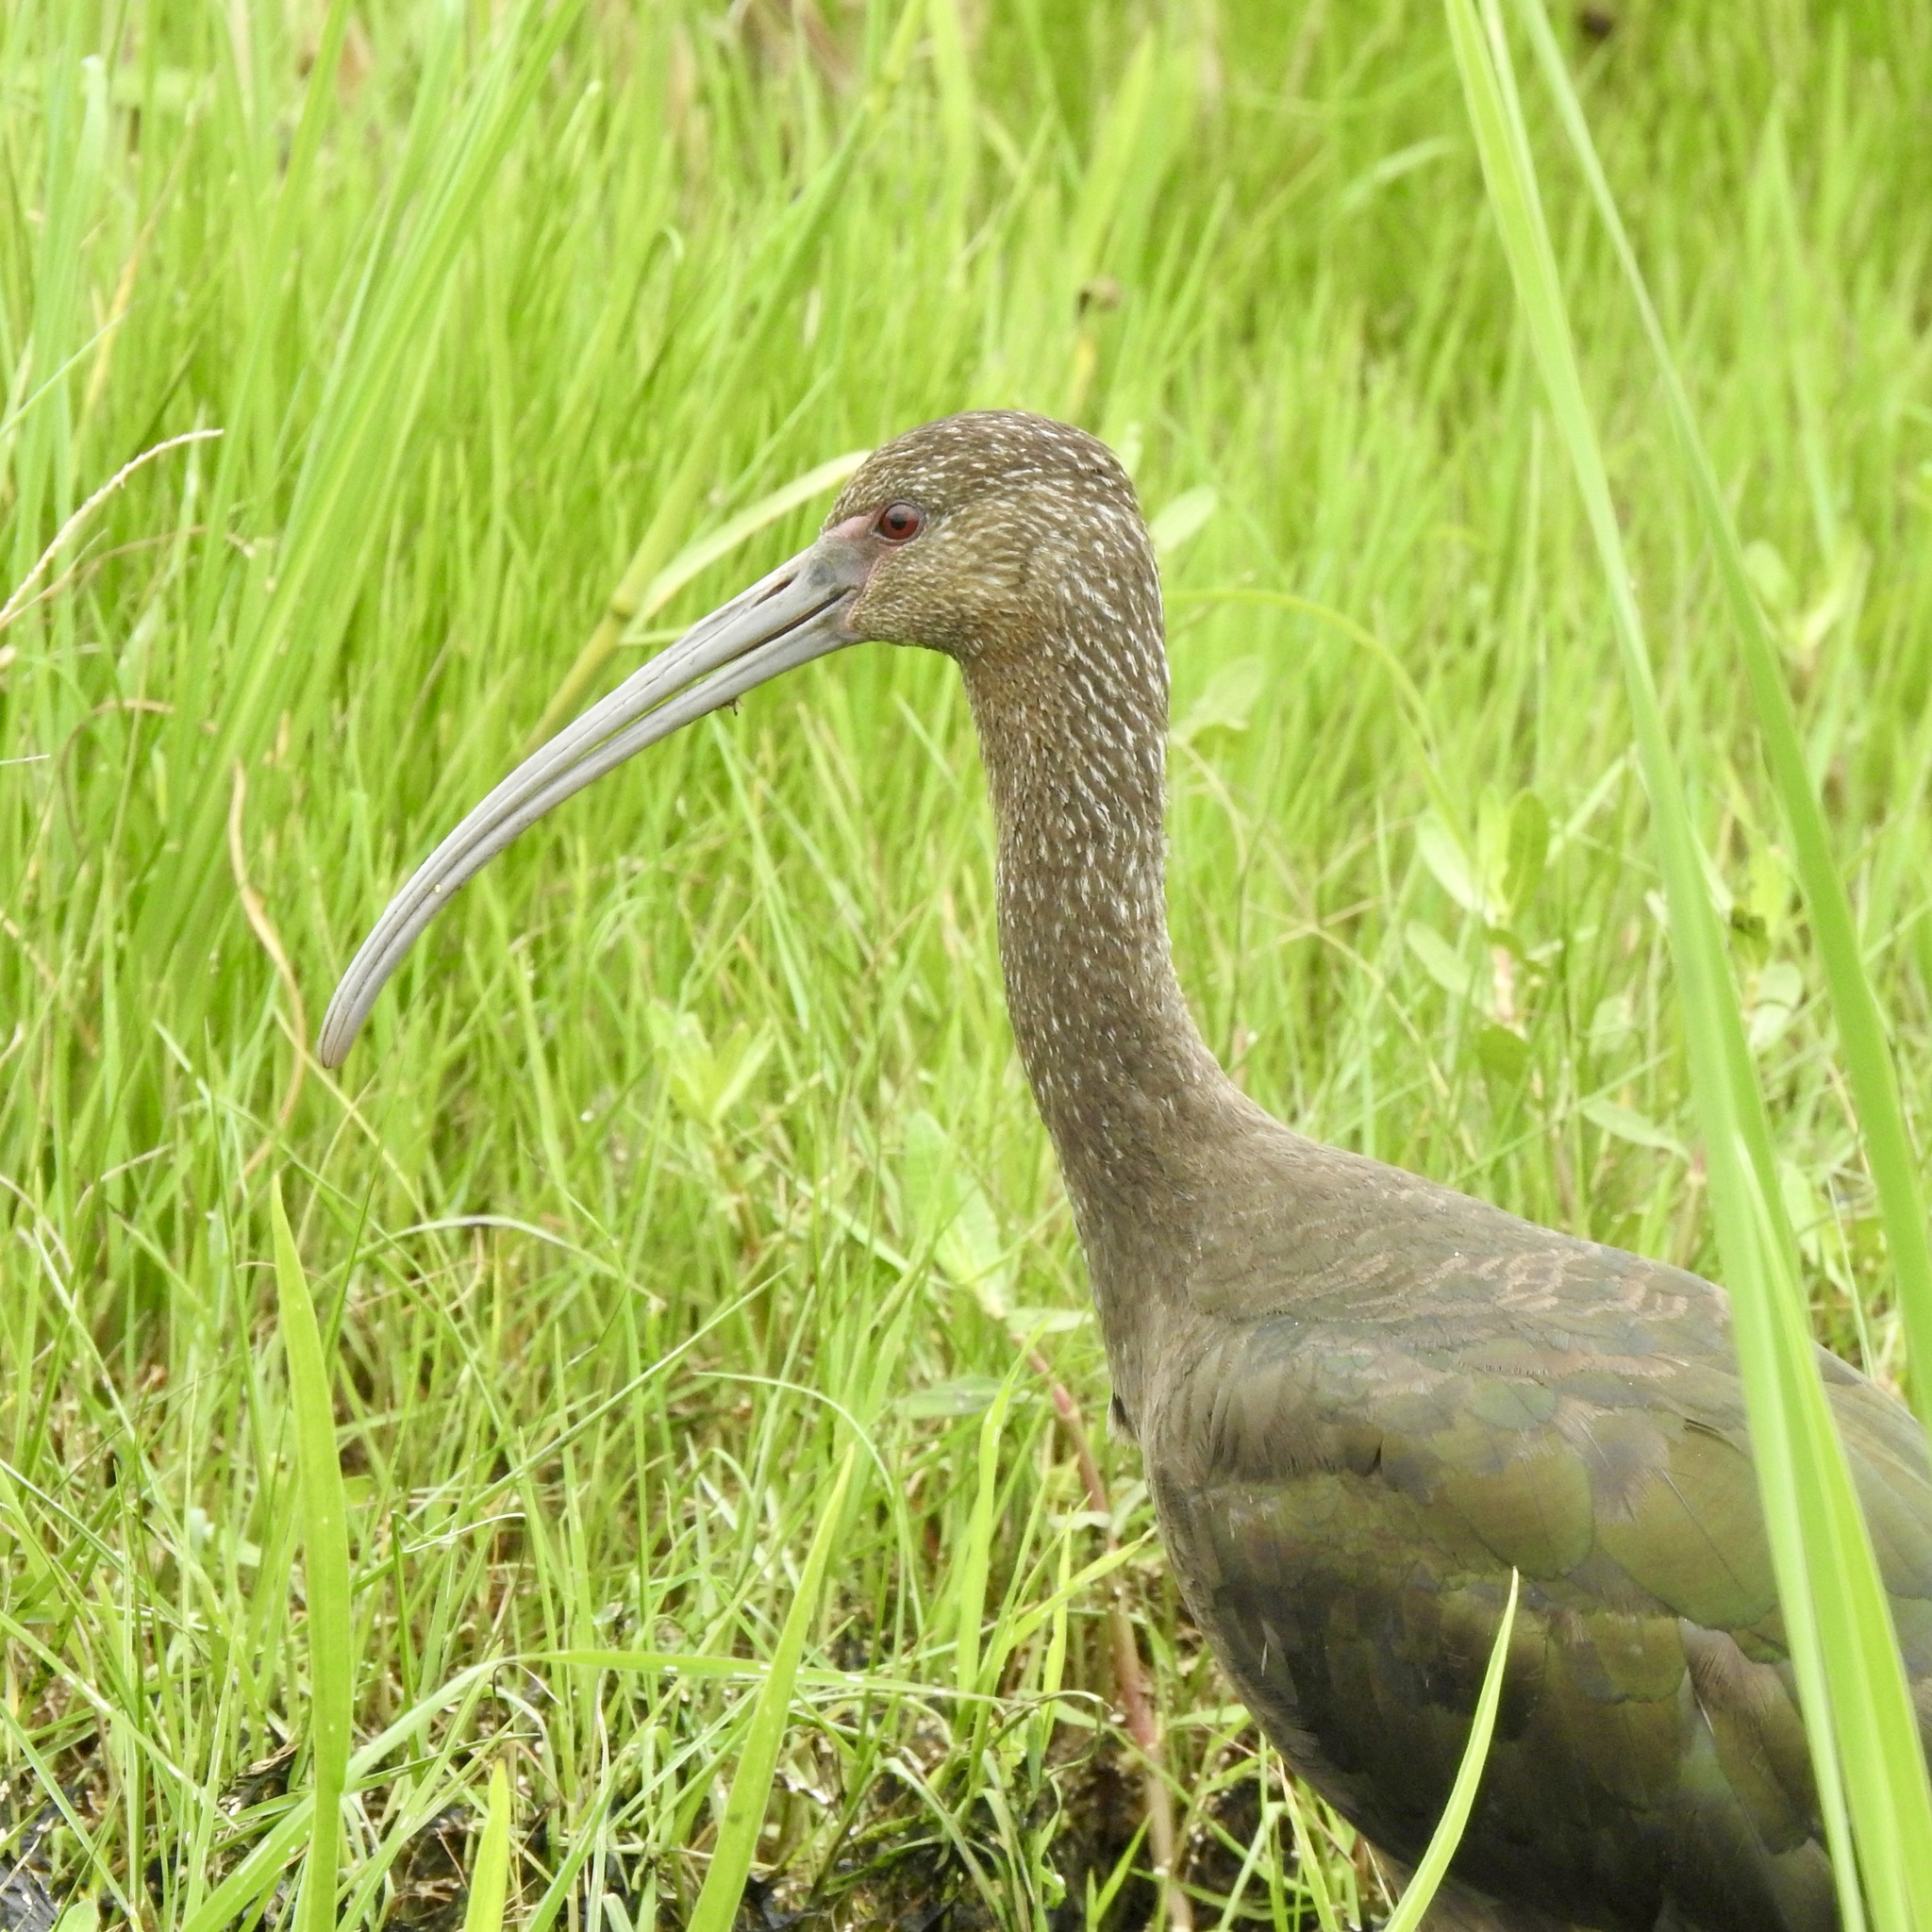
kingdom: Animalia
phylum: Chordata
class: Aves
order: Pelecaniformes
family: Threskiornithidae
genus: Plegadis
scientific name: Plegadis chihi
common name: White-faced ibis
